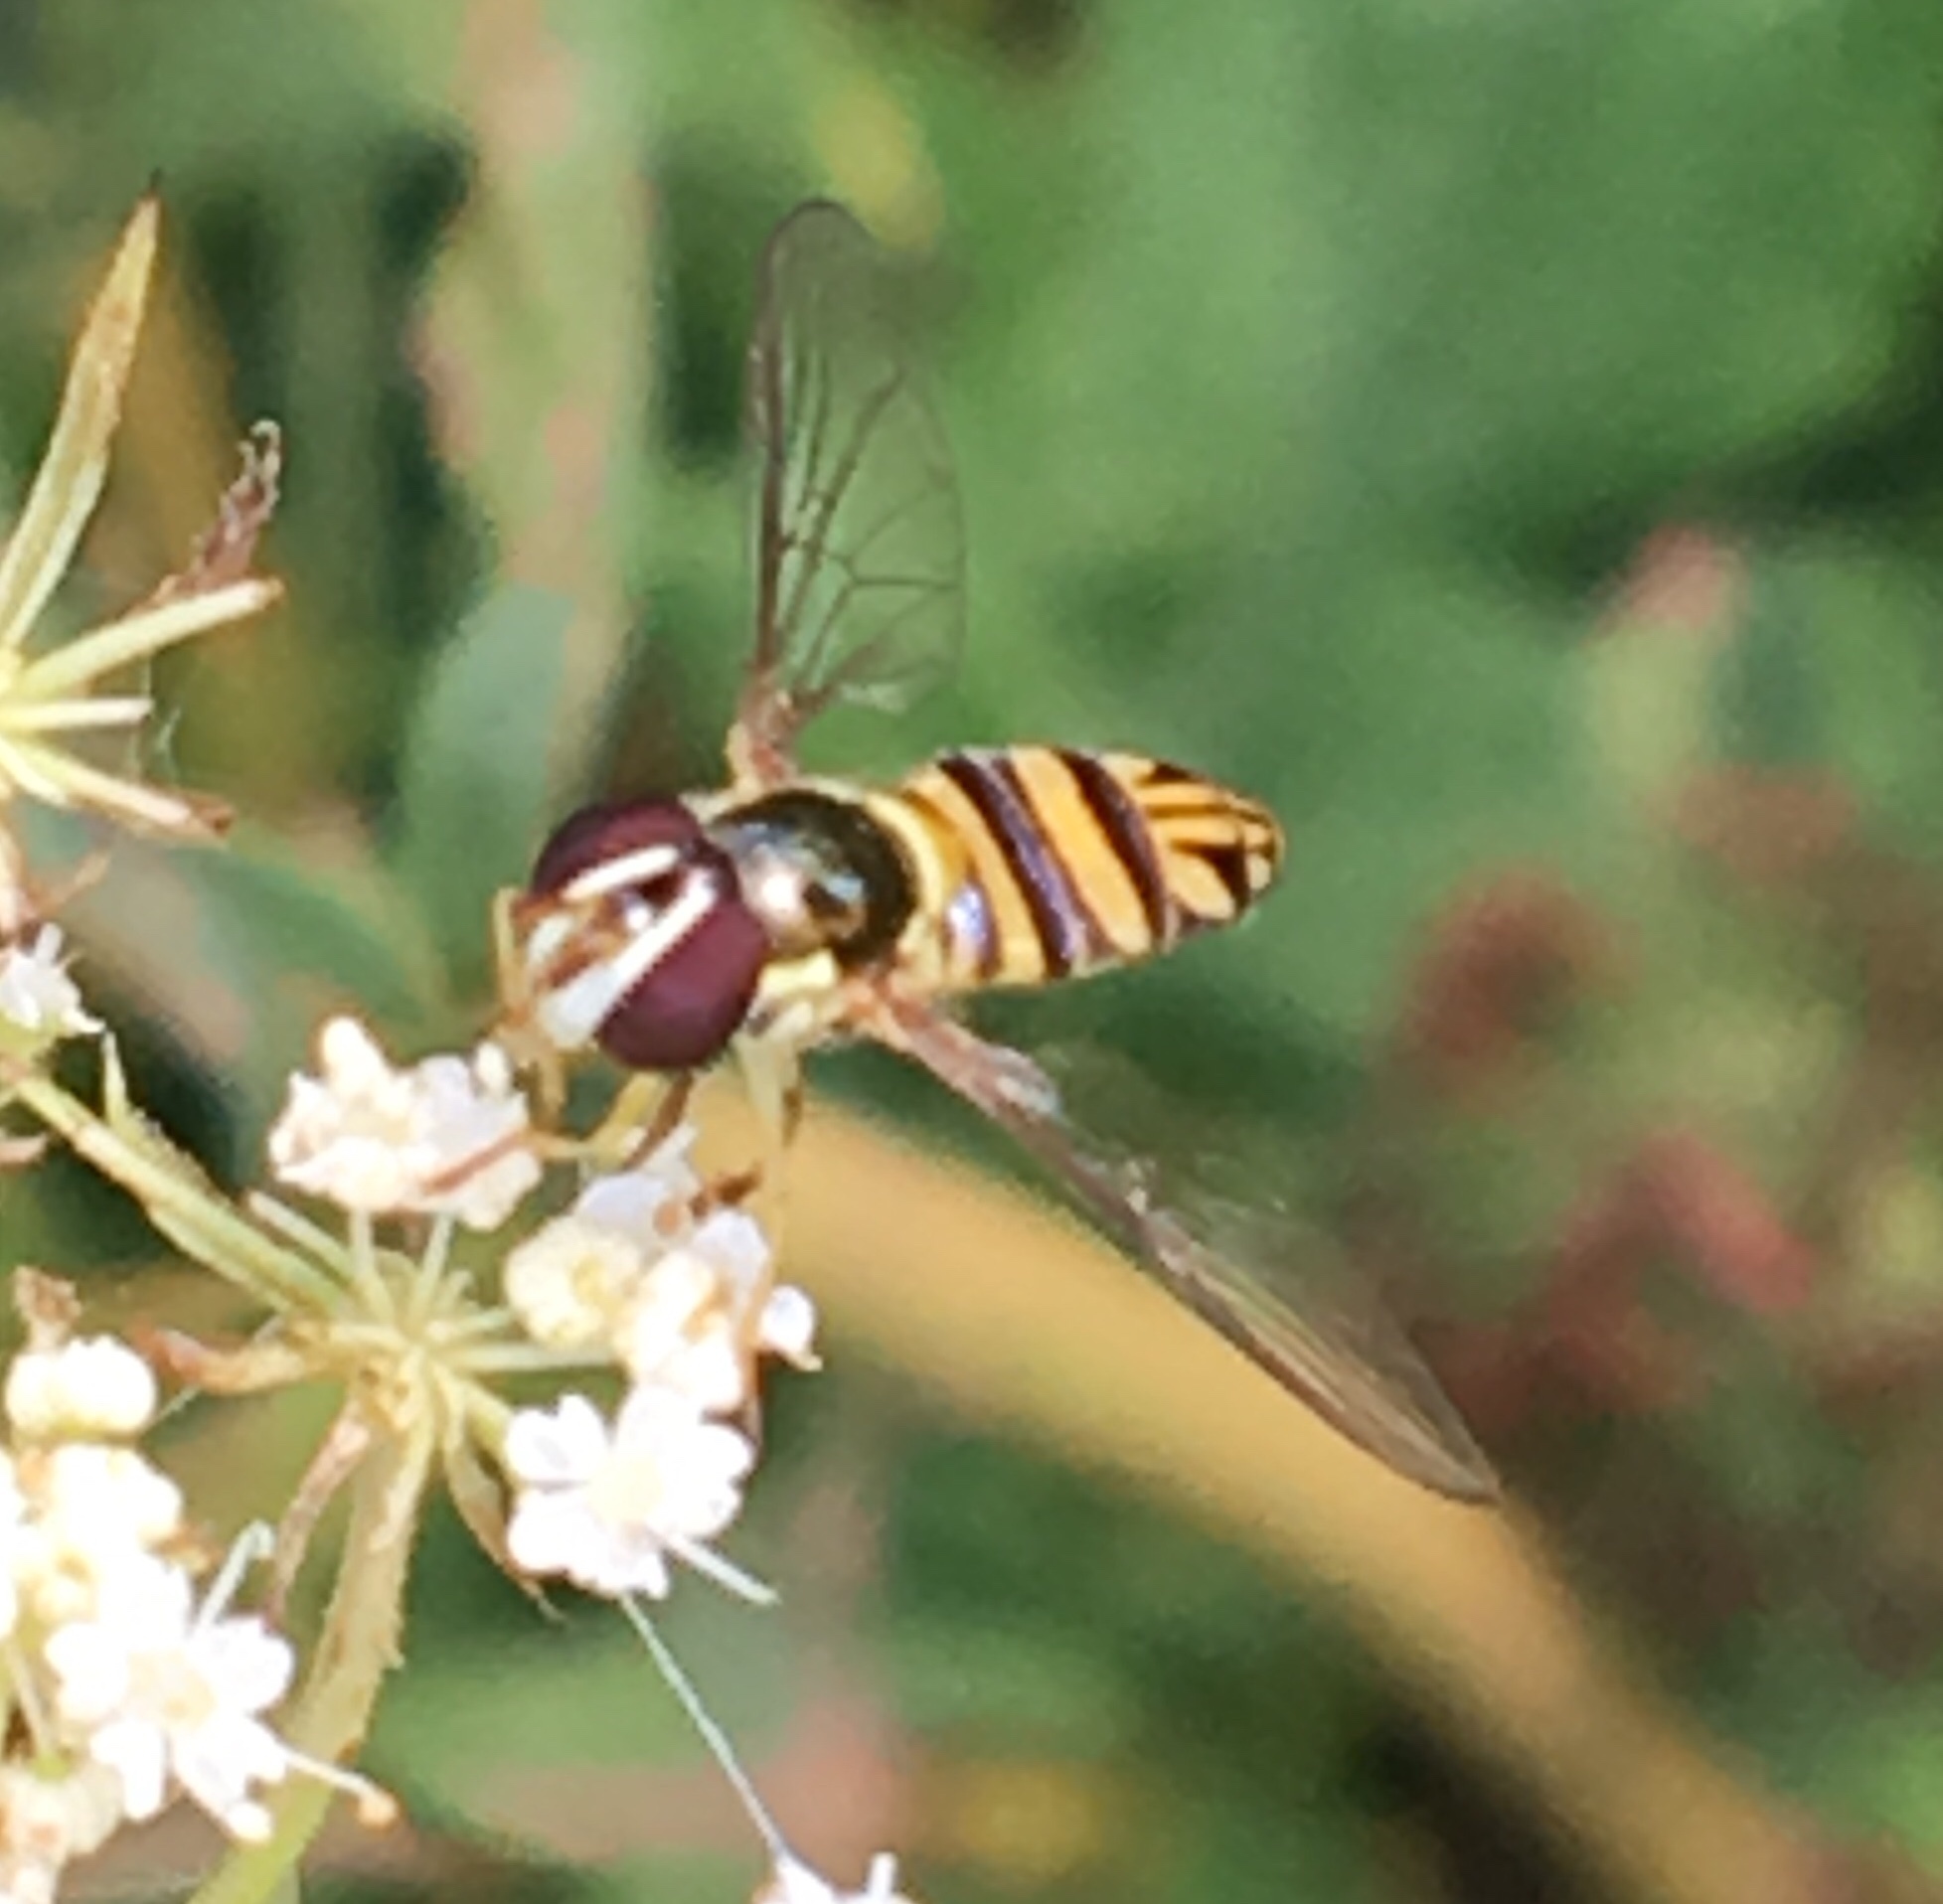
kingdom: Animalia
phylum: Arthropoda
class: Insecta
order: Diptera
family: Syrphidae
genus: Allograpta
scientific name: Allograpta obliqua
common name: Common oblique syrphid
